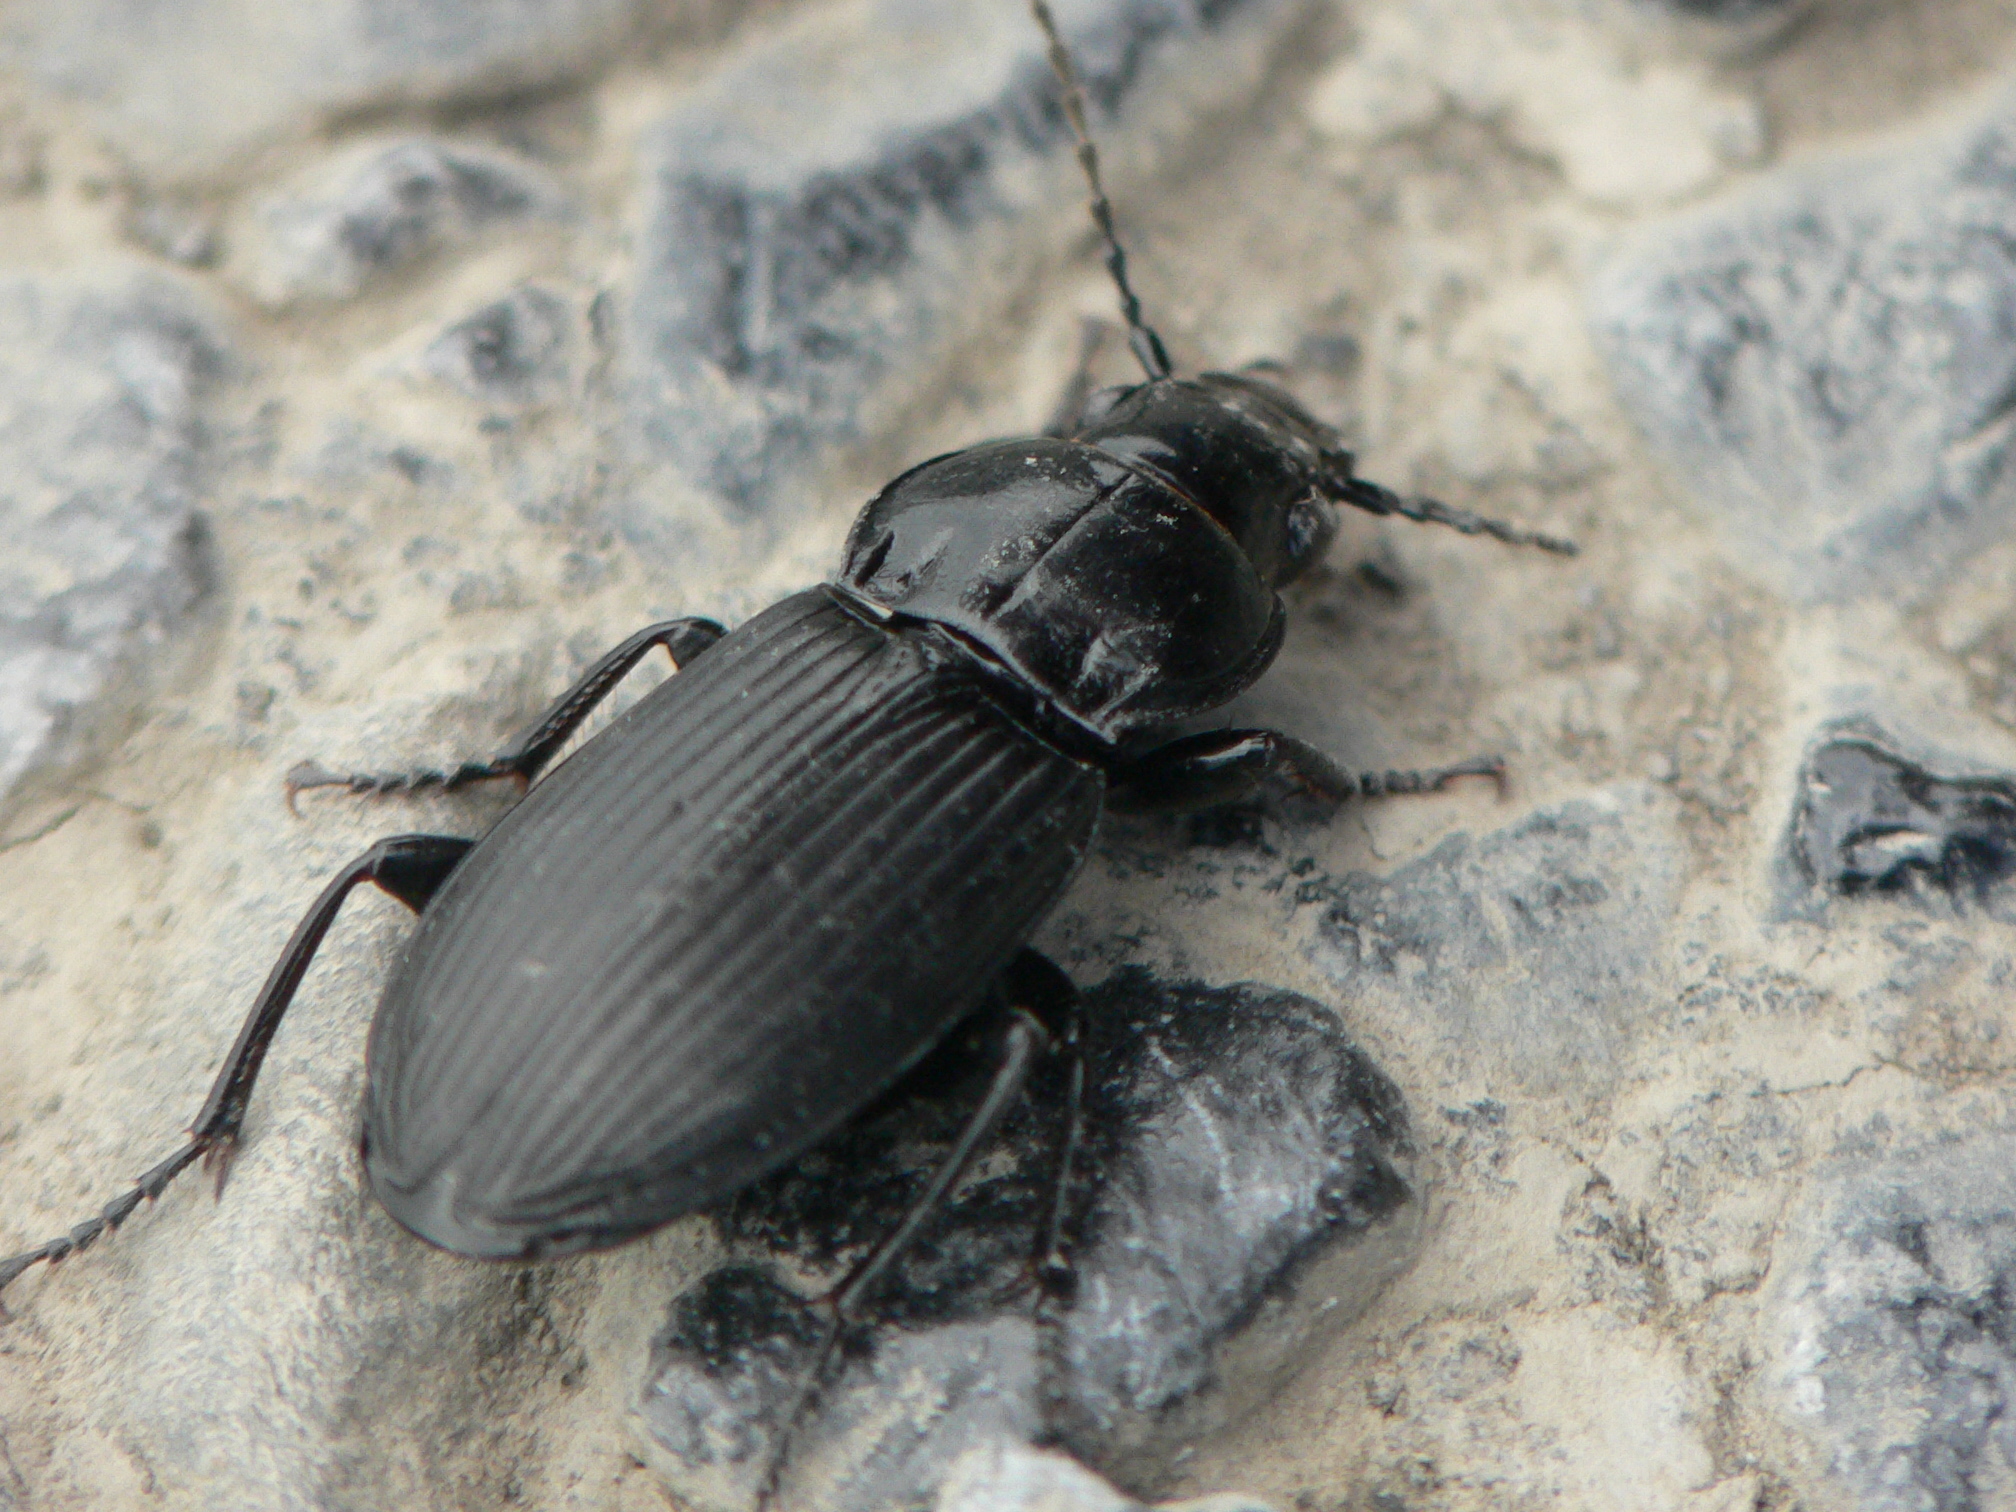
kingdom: Animalia
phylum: Arthropoda
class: Insecta
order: Coleoptera
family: Carabidae
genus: Pterostichus
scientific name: Pterostichus melanarius
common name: European dark harp ground beetle
